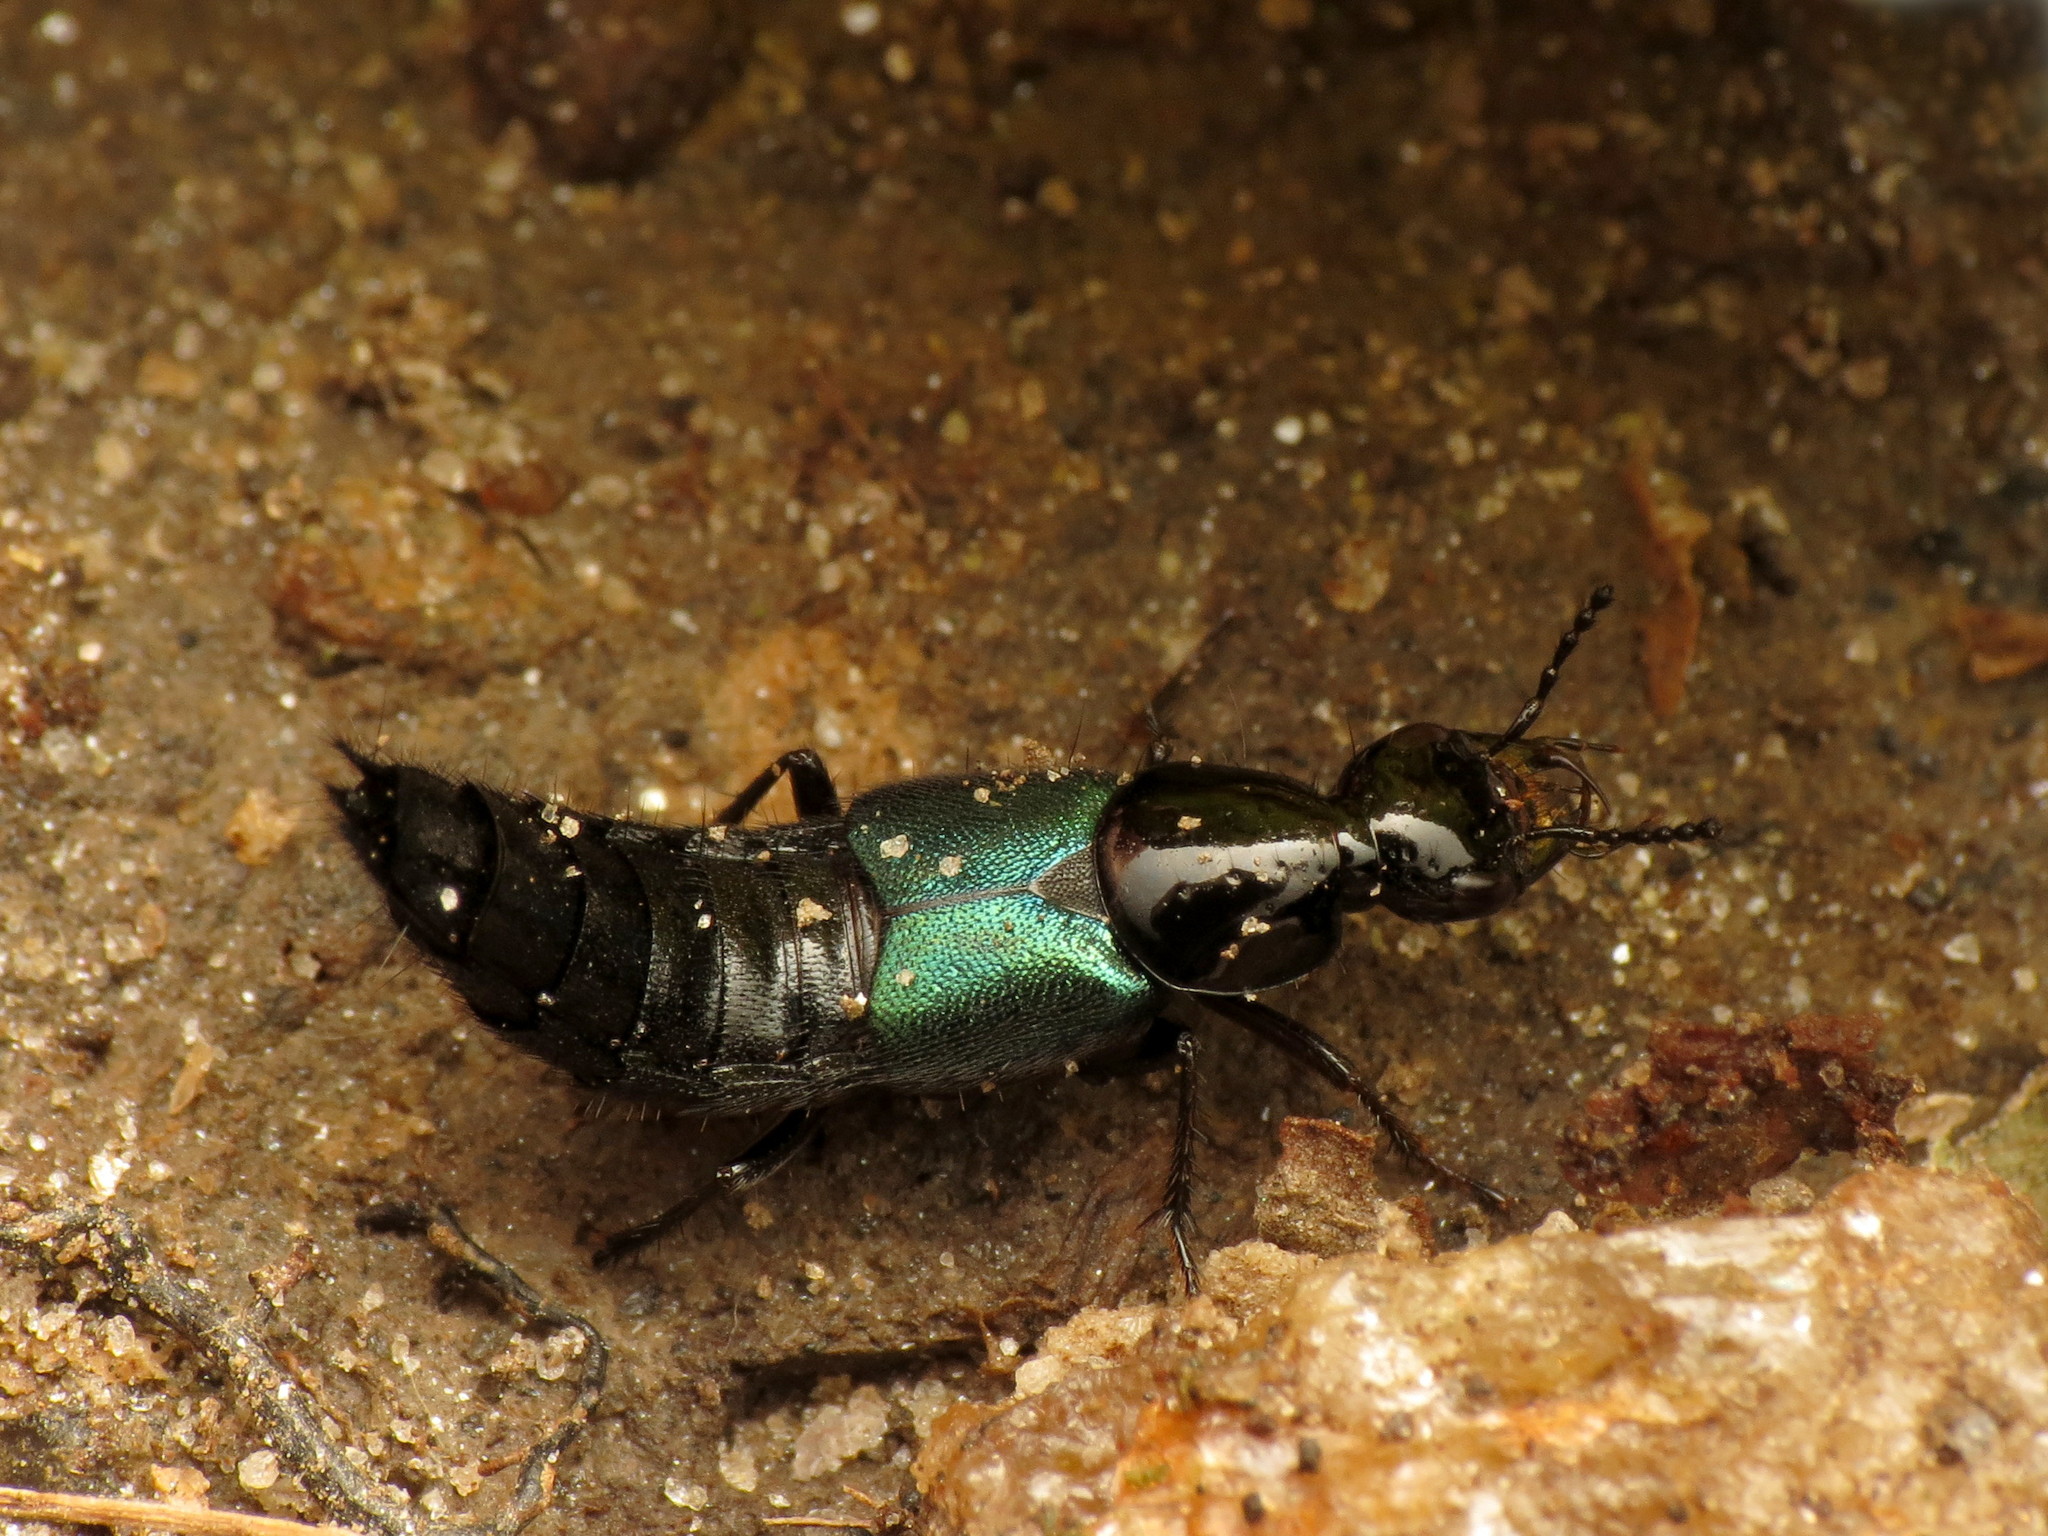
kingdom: Animalia
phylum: Arthropoda
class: Insecta
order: Coleoptera
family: Staphylinidae
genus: Philonthus
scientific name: Philonthus caeruleipennis
